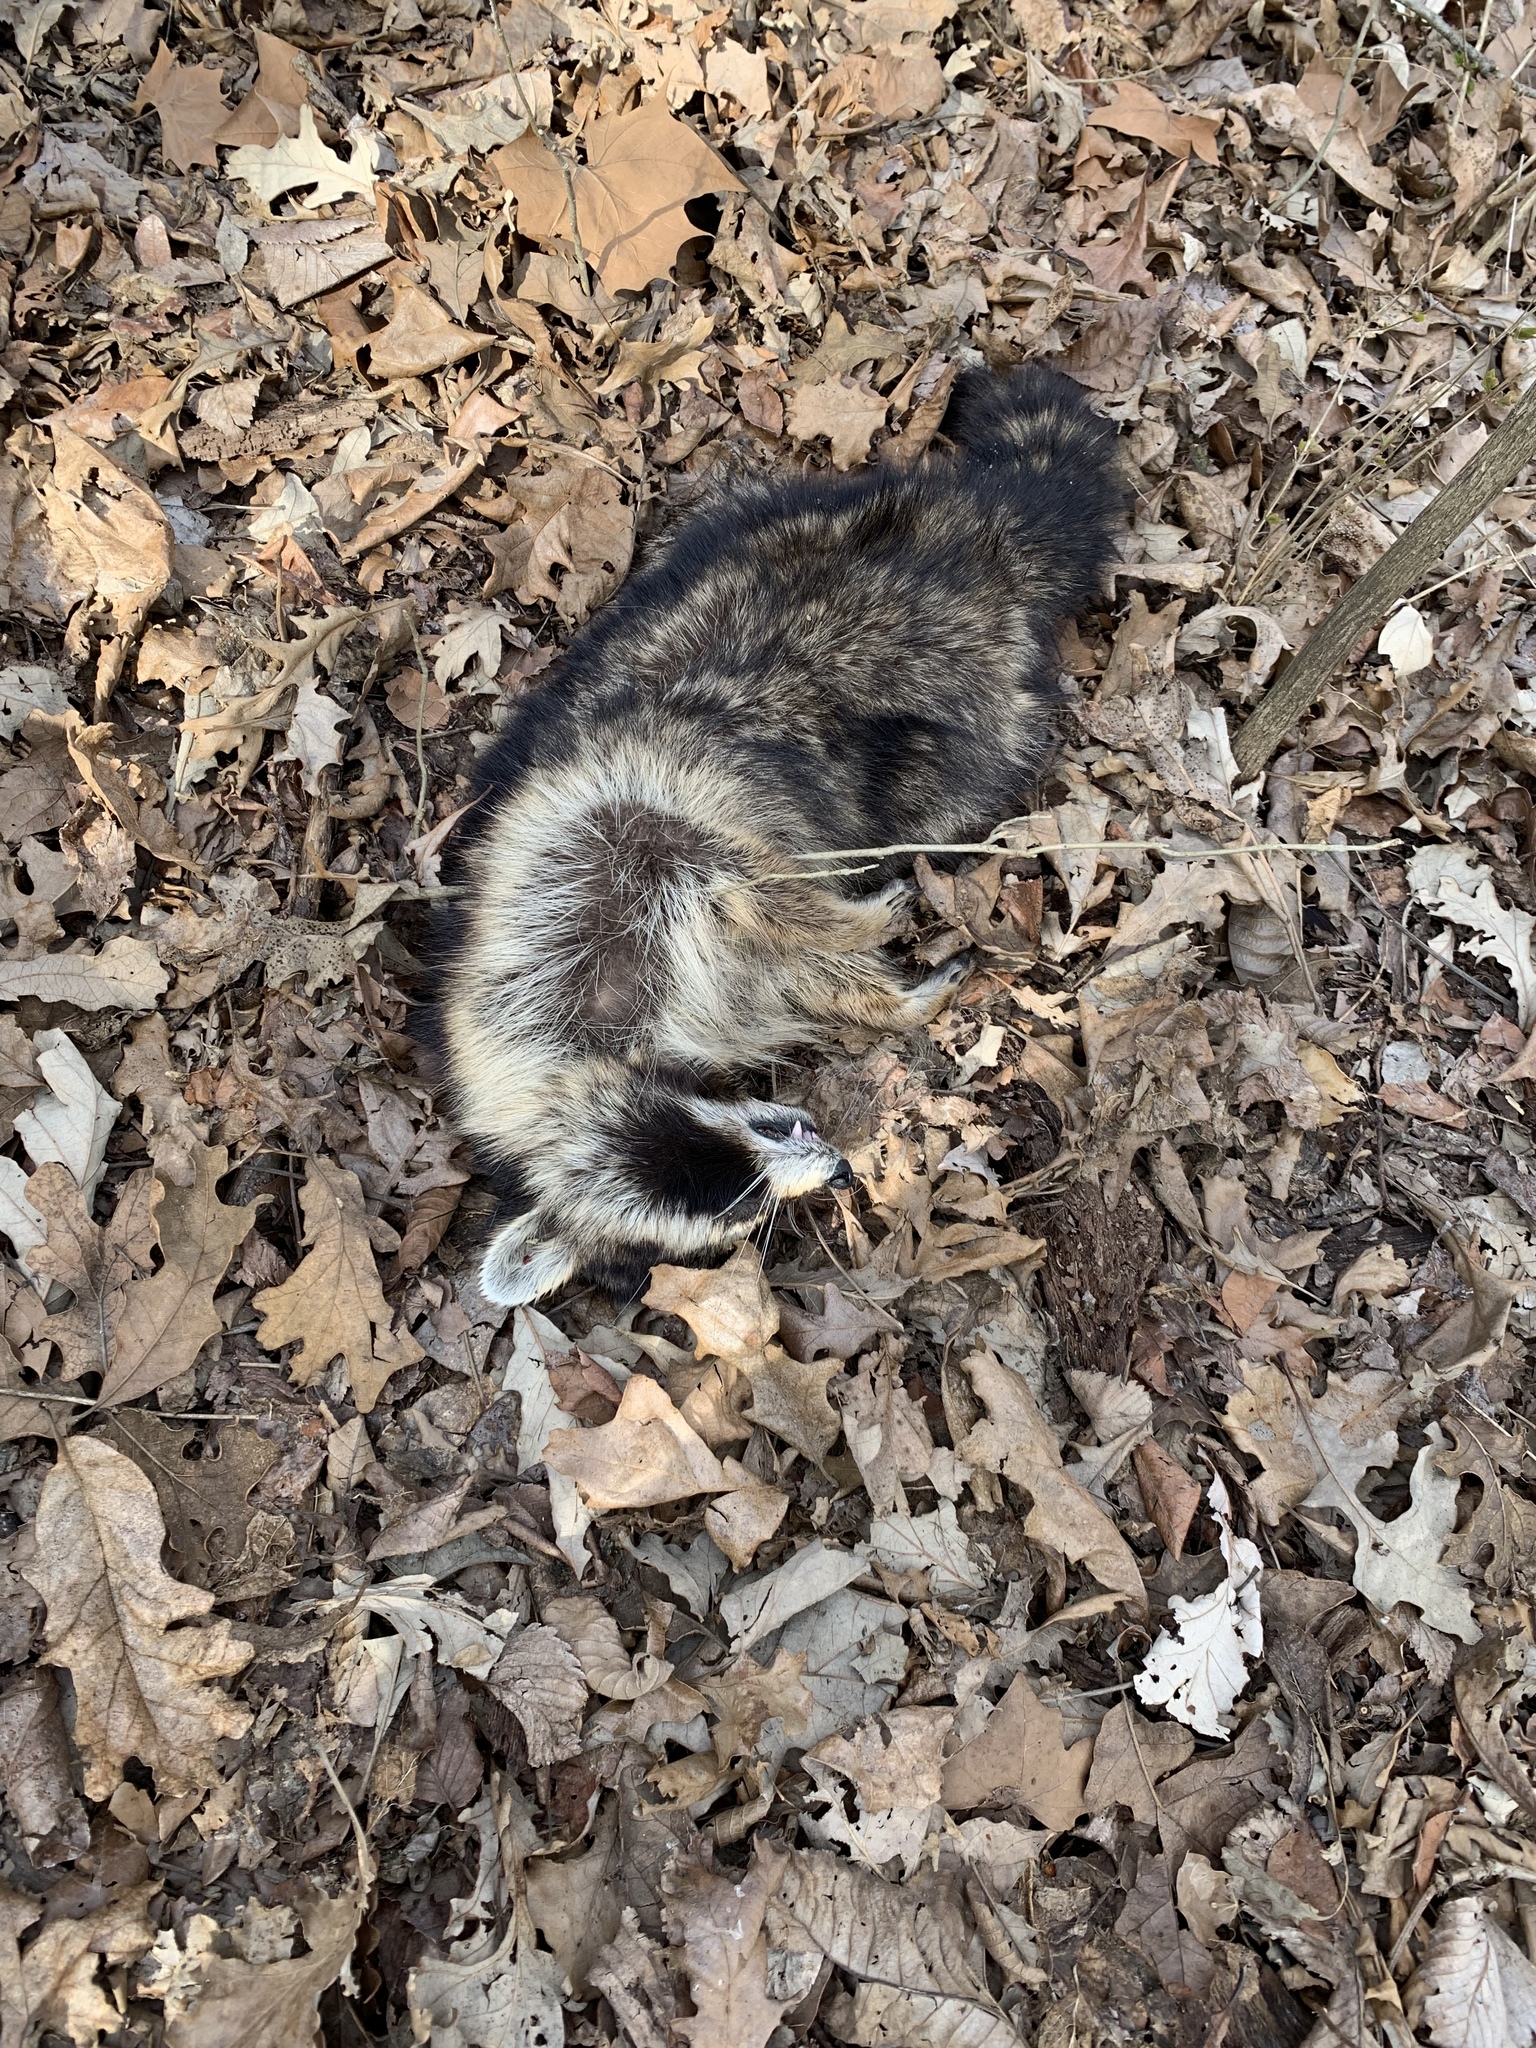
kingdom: Animalia
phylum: Chordata
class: Mammalia
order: Carnivora
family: Procyonidae
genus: Procyon
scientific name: Procyon lotor
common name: Raccoon
